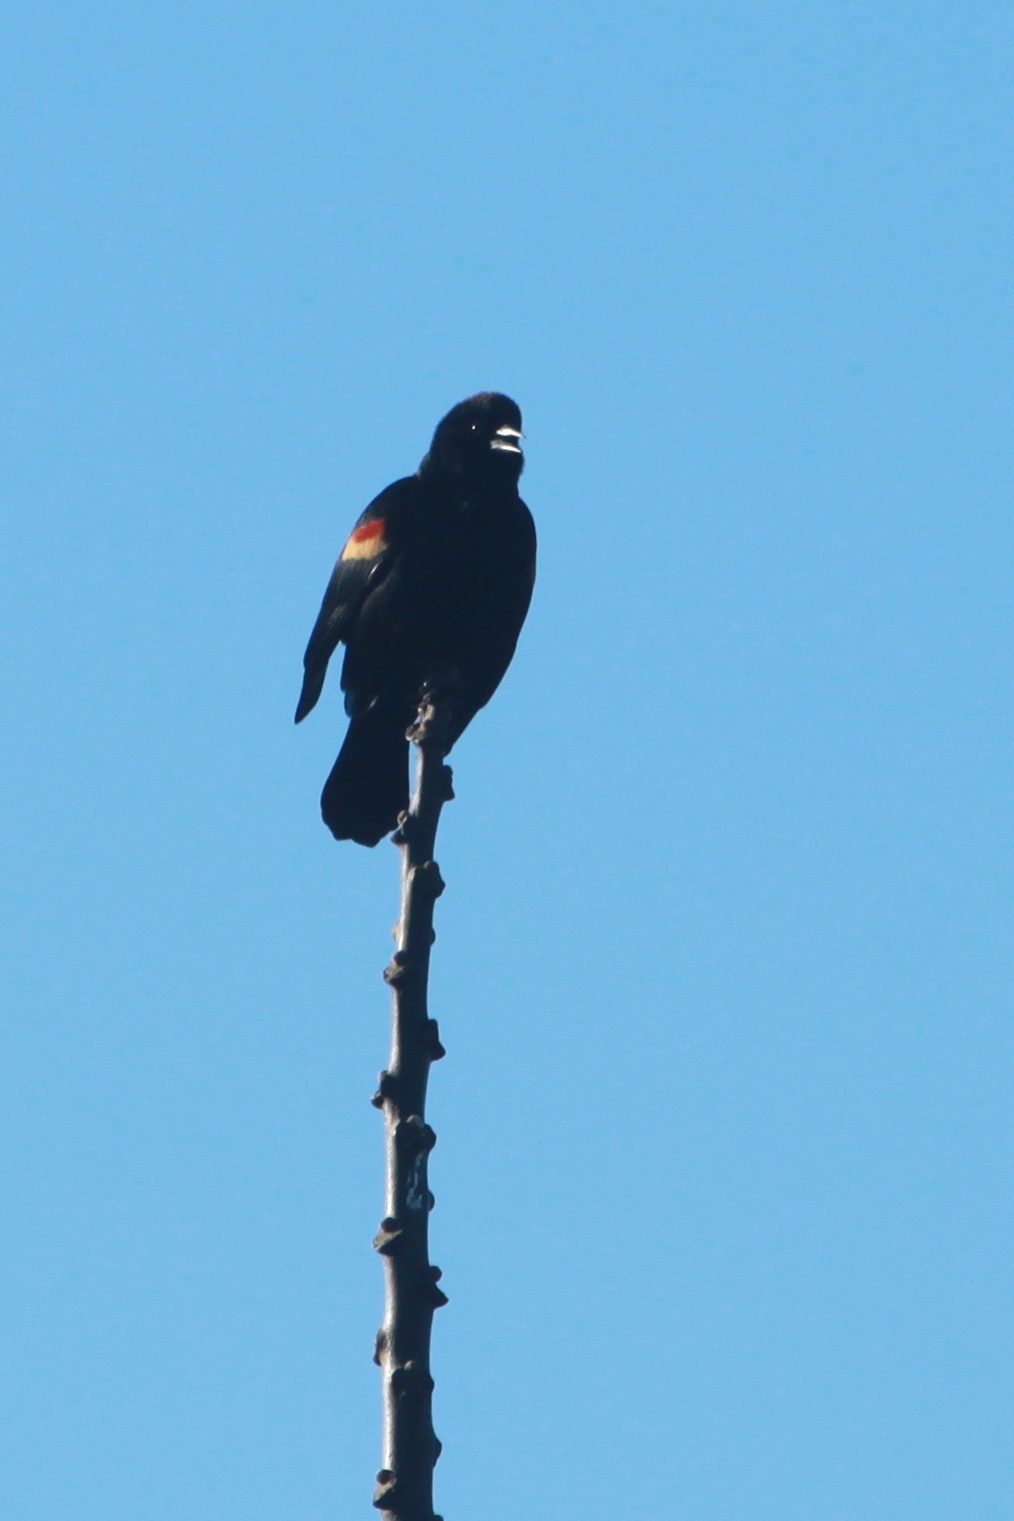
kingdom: Animalia
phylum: Chordata
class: Aves
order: Passeriformes
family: Icteridae
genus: Agelaius
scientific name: Agelaius phoeniceus
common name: Red-winged blackbird
